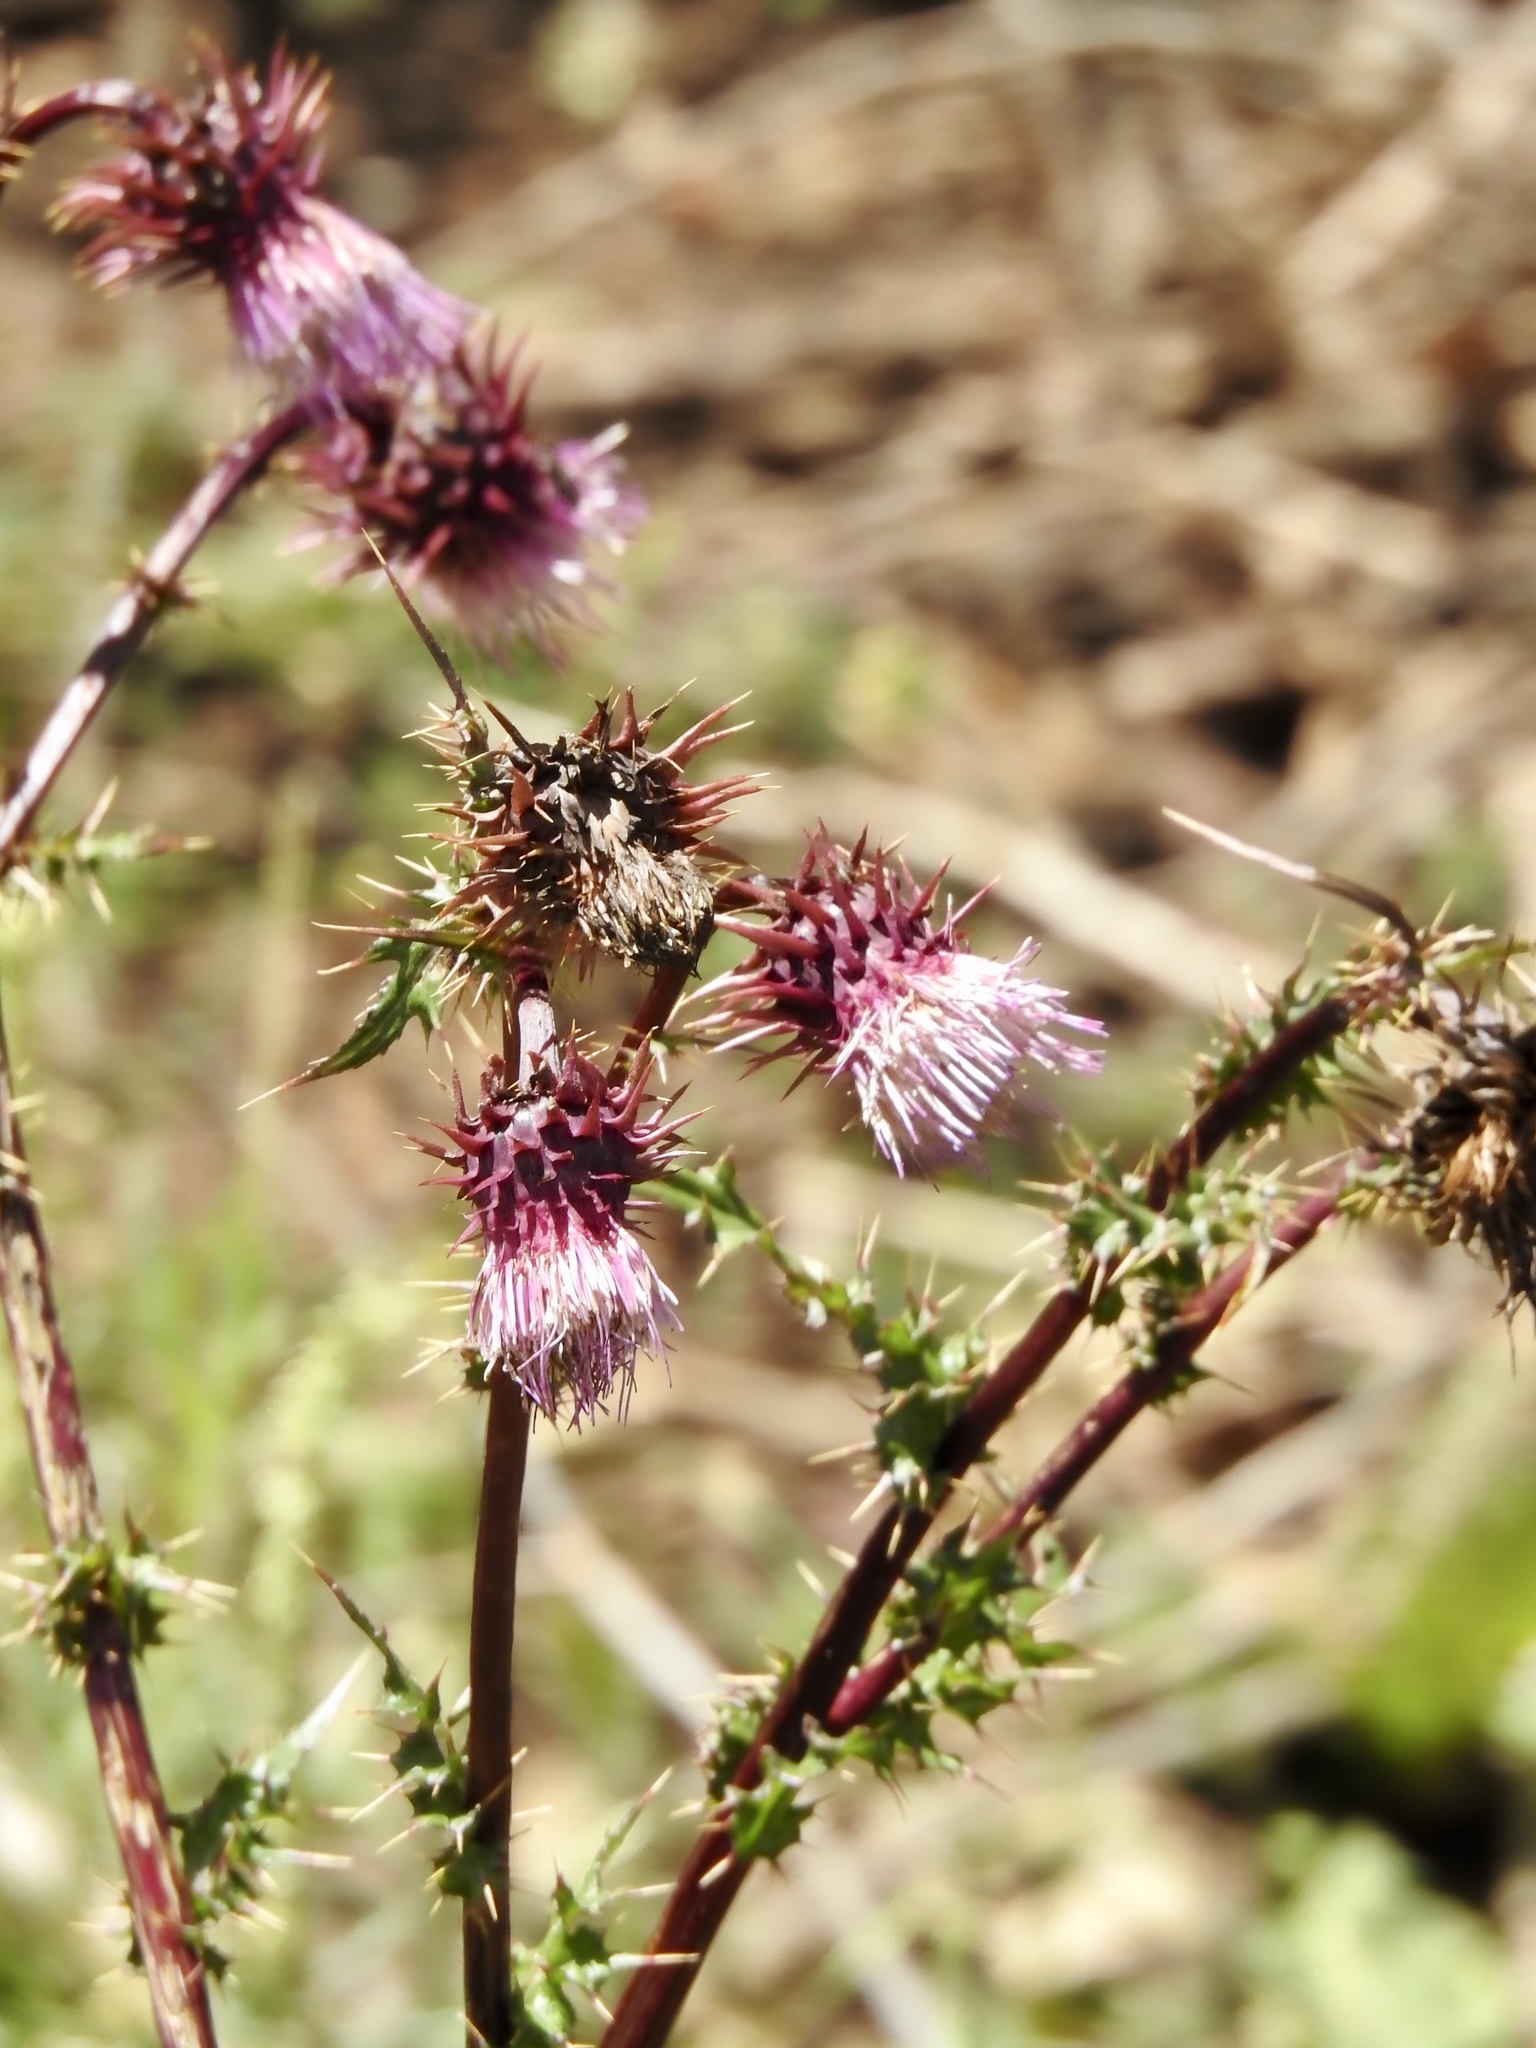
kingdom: Plantae
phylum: Tracheophyta
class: Magnoliopsida
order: Asterales
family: Asteraceae
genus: Cirsium
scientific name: Cirsium vinaceum
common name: Sacramento mountain thistle
